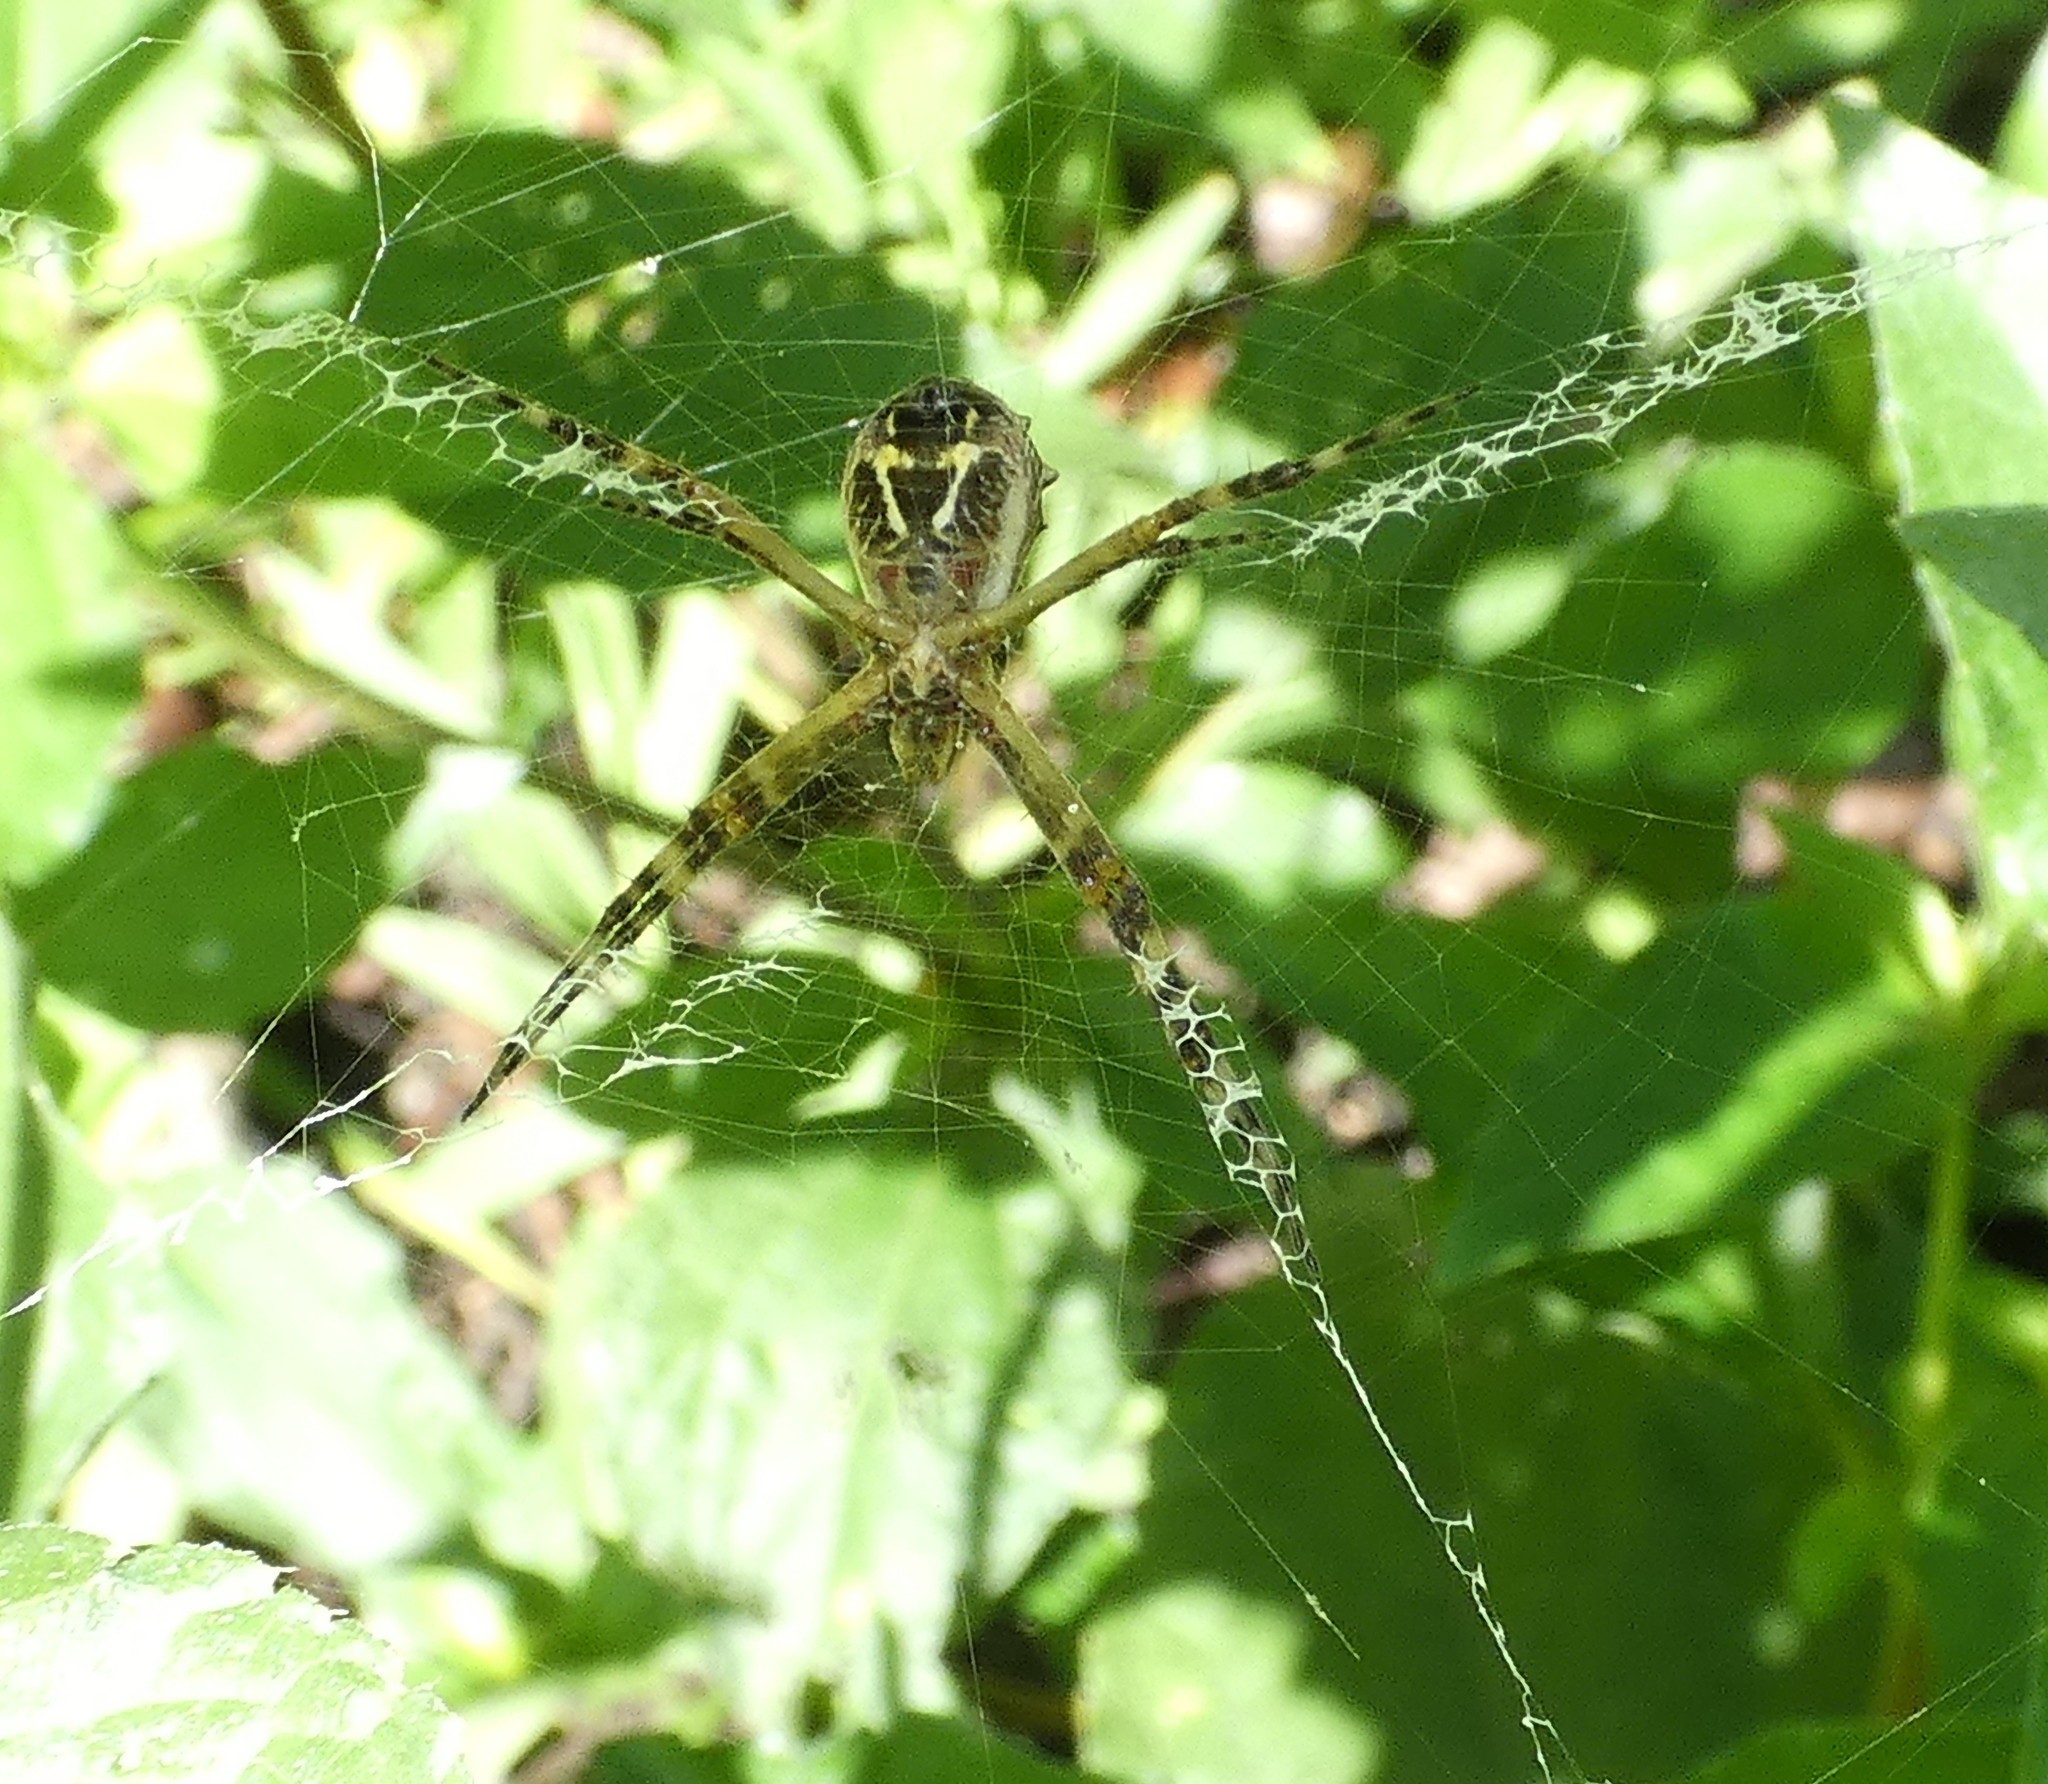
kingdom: Animalia
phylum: Arthropoda
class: Arachnida
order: Araneae
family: Araneidae
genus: Argiope
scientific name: Argiope argentata
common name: Orb weavers
